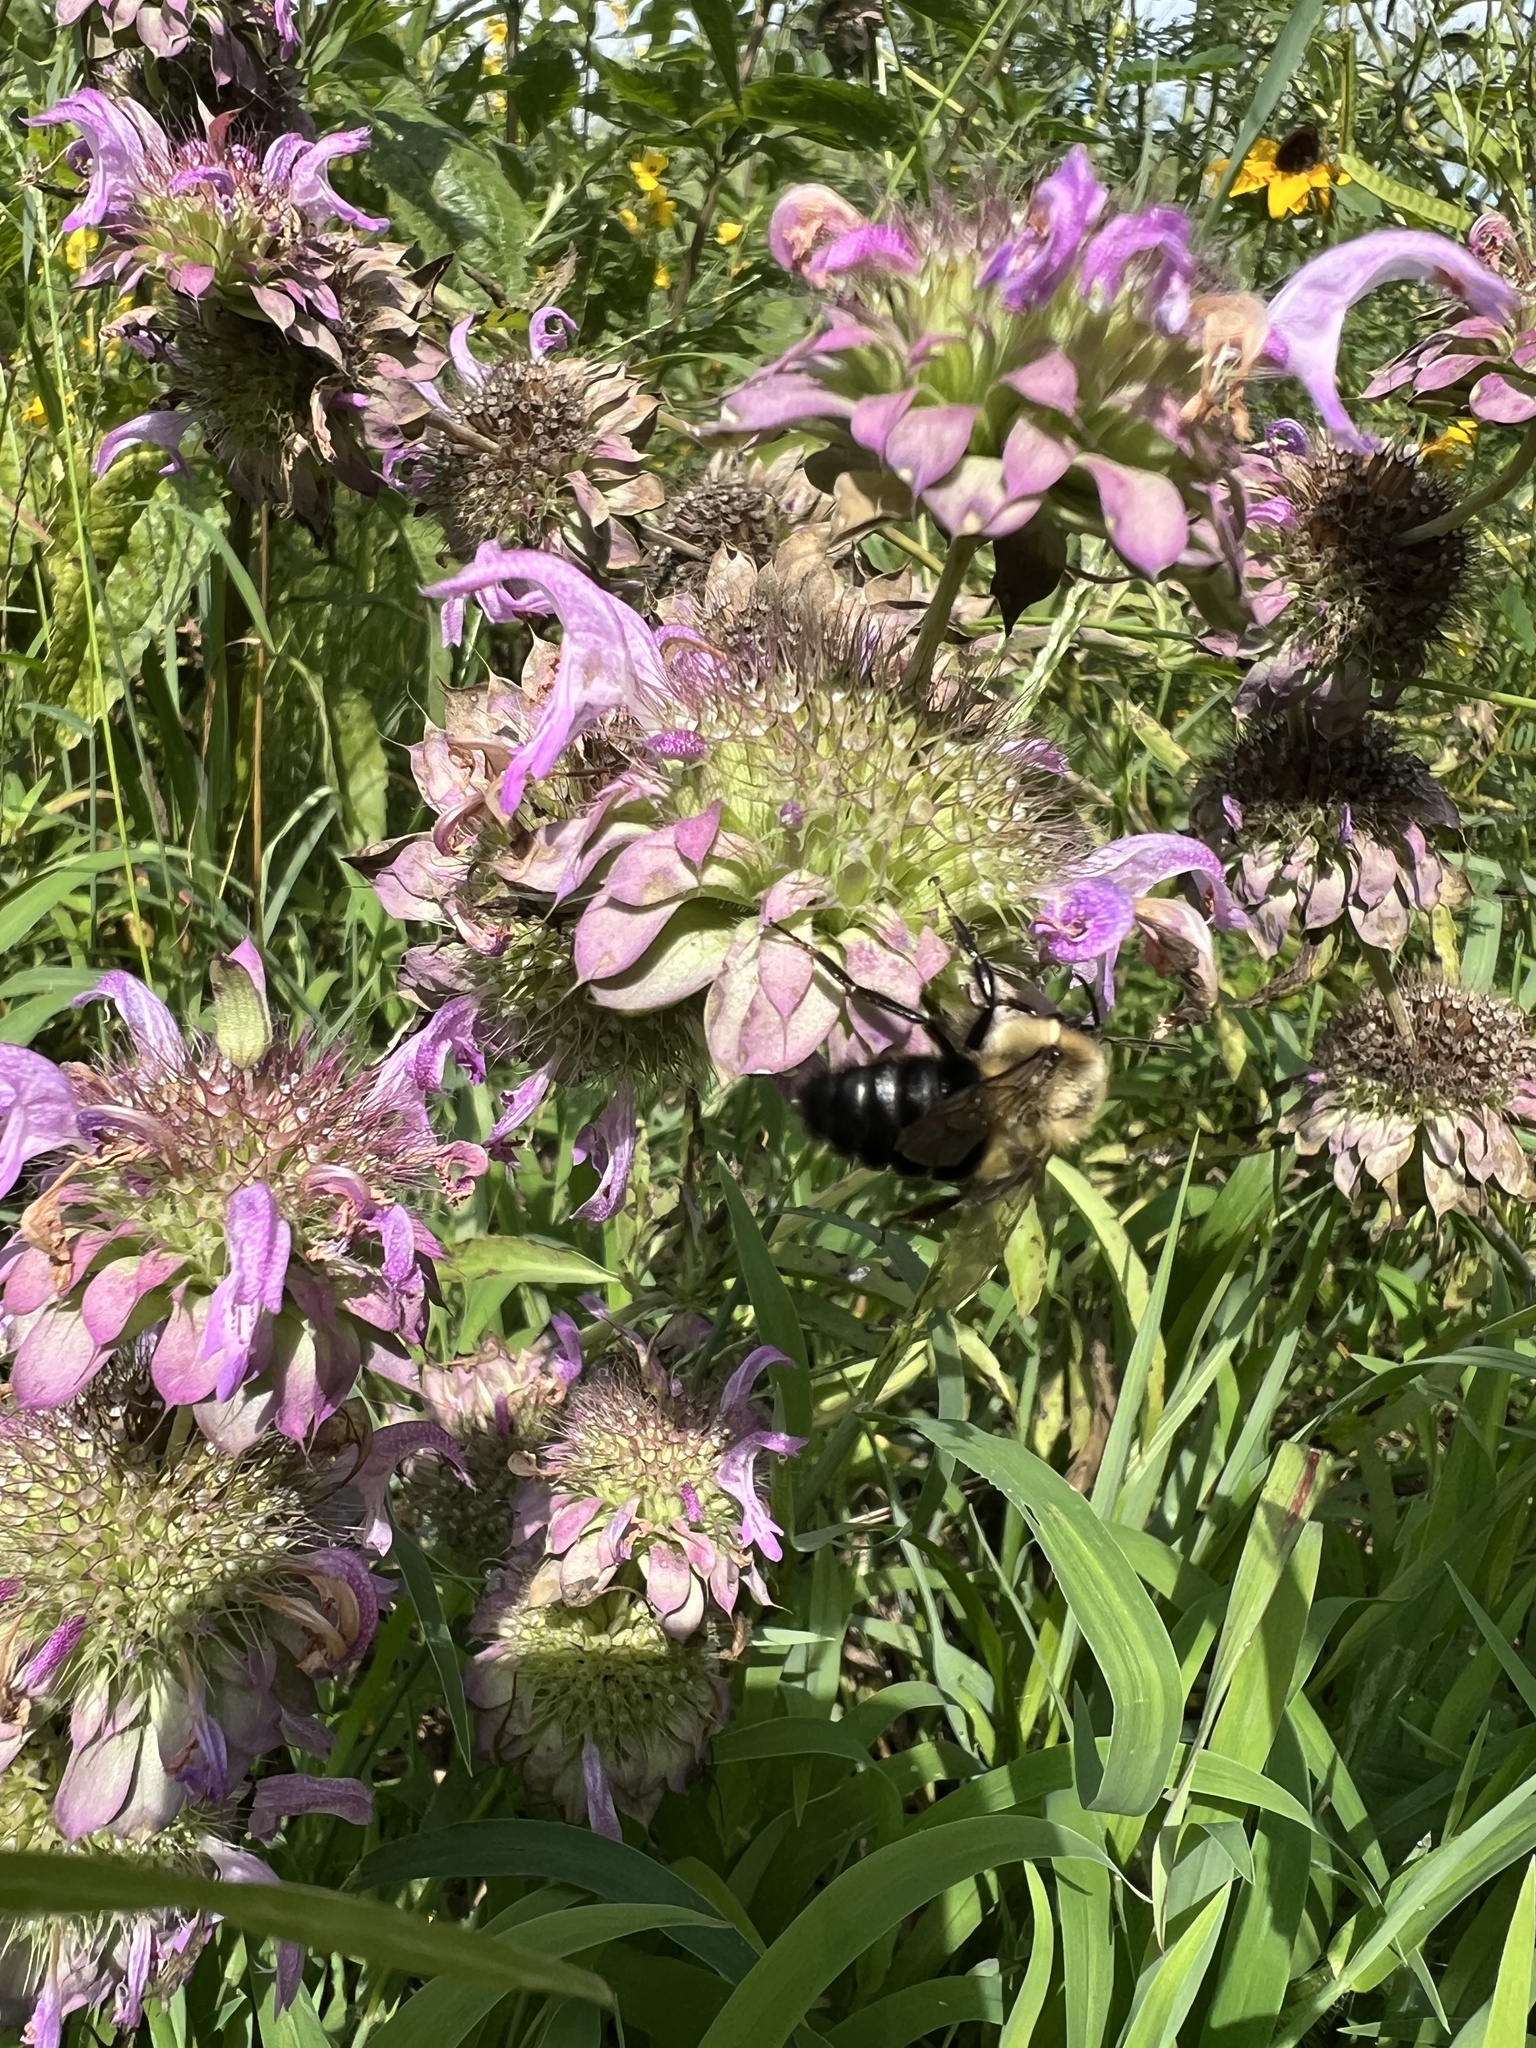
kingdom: Animalia
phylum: Arthropoda
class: Insecta
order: Hymenoptera
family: Apidae
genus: Bombus
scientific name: Bombus impatiens
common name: Common eastern bumble bee
